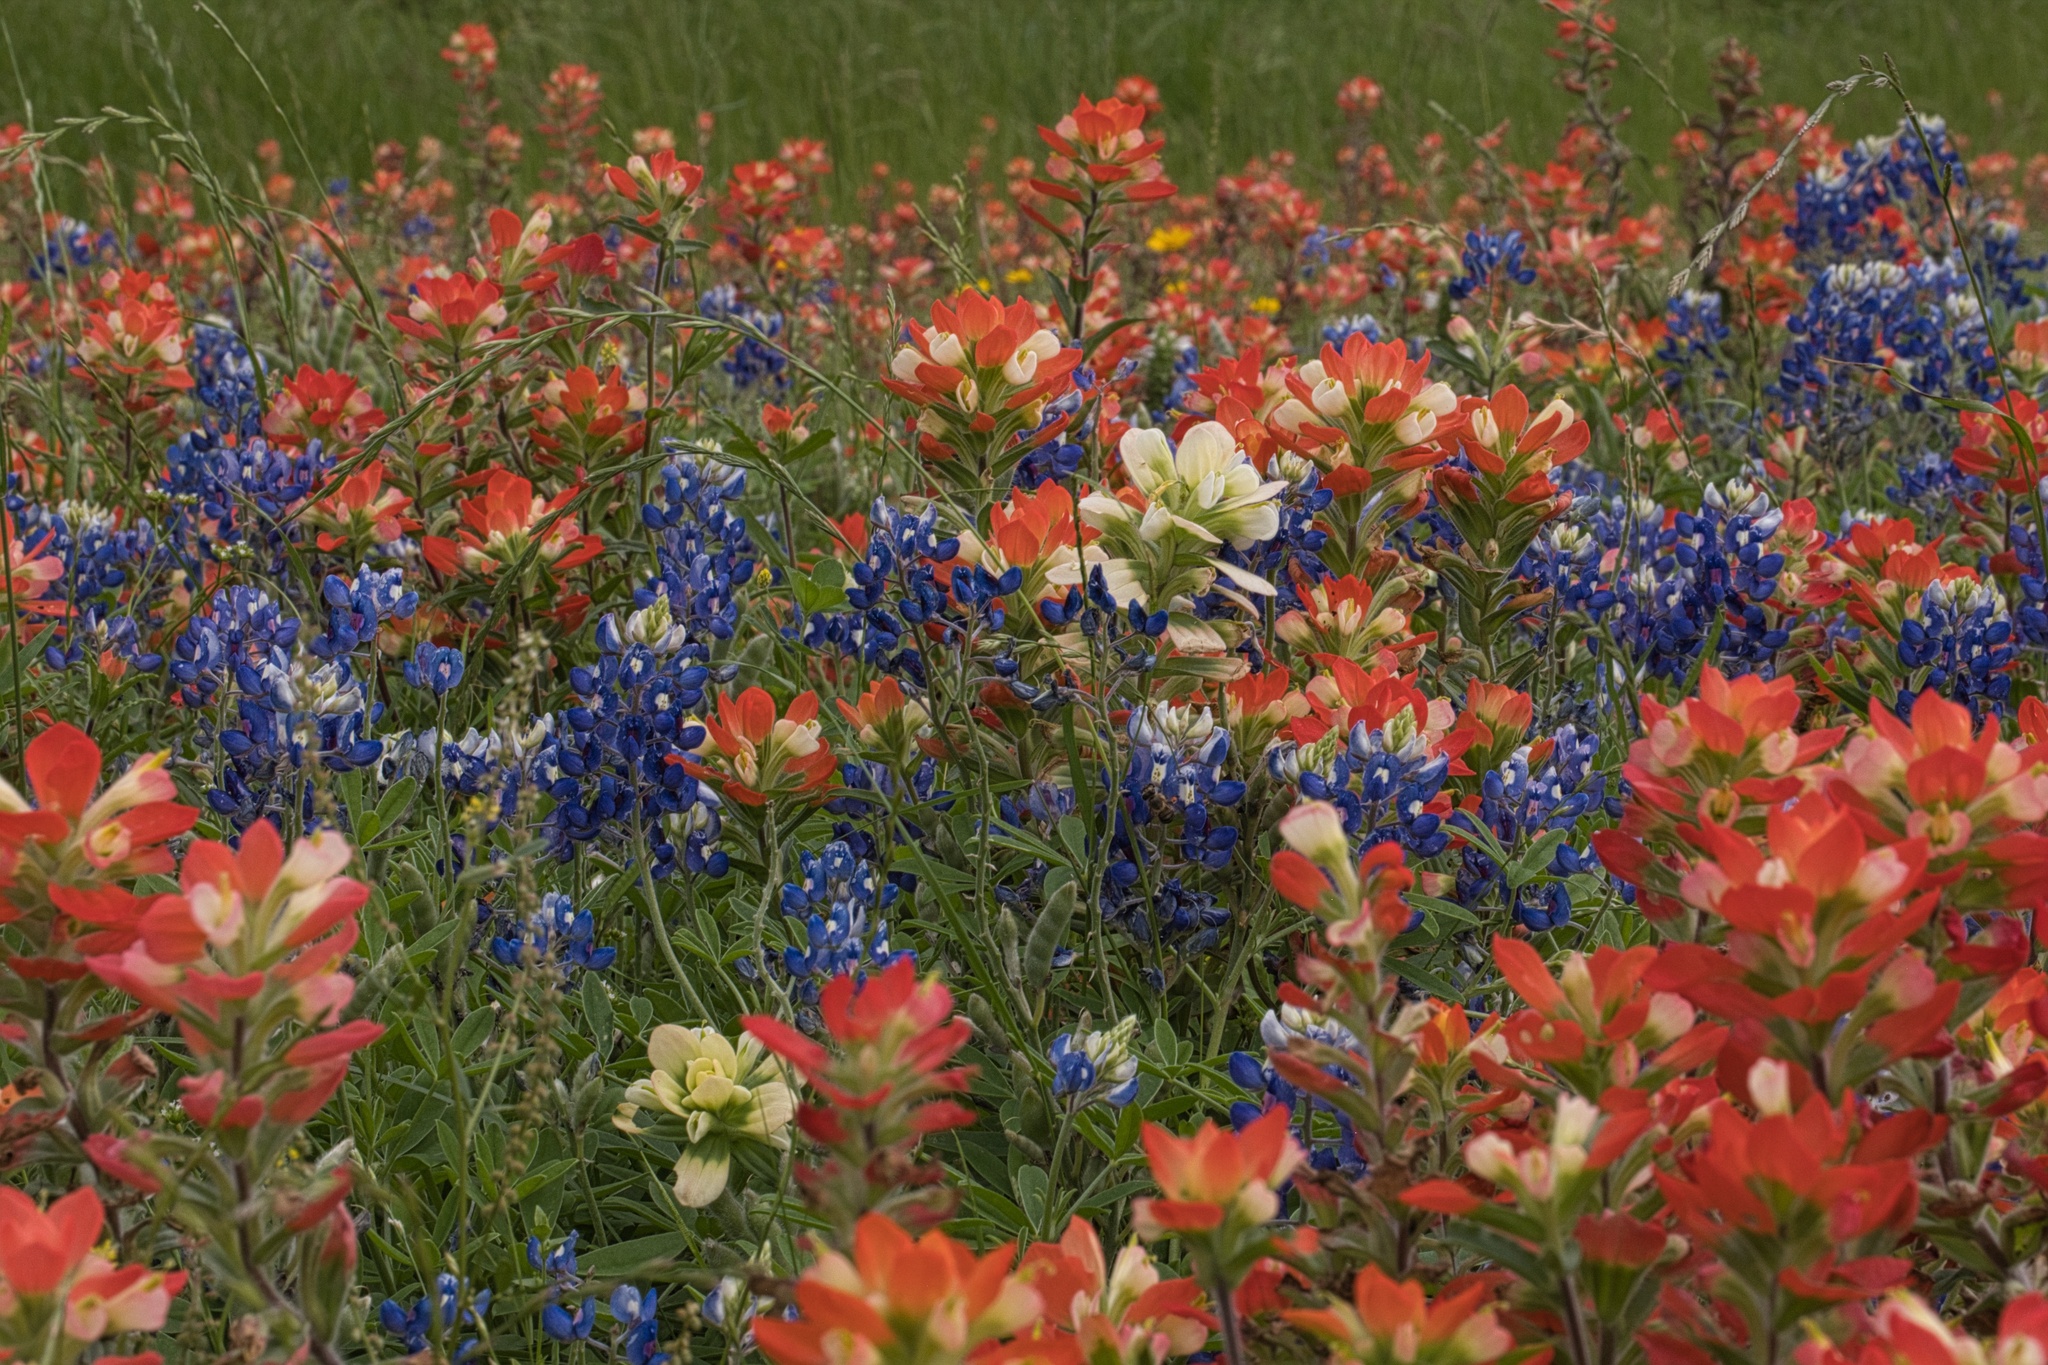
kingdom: Plantae
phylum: Tracheophyta
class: Magnoliopsida
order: Lamiales
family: Orobanchaceae
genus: Castilleja
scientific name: Castilleja indivisa
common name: Texas paintbrush
